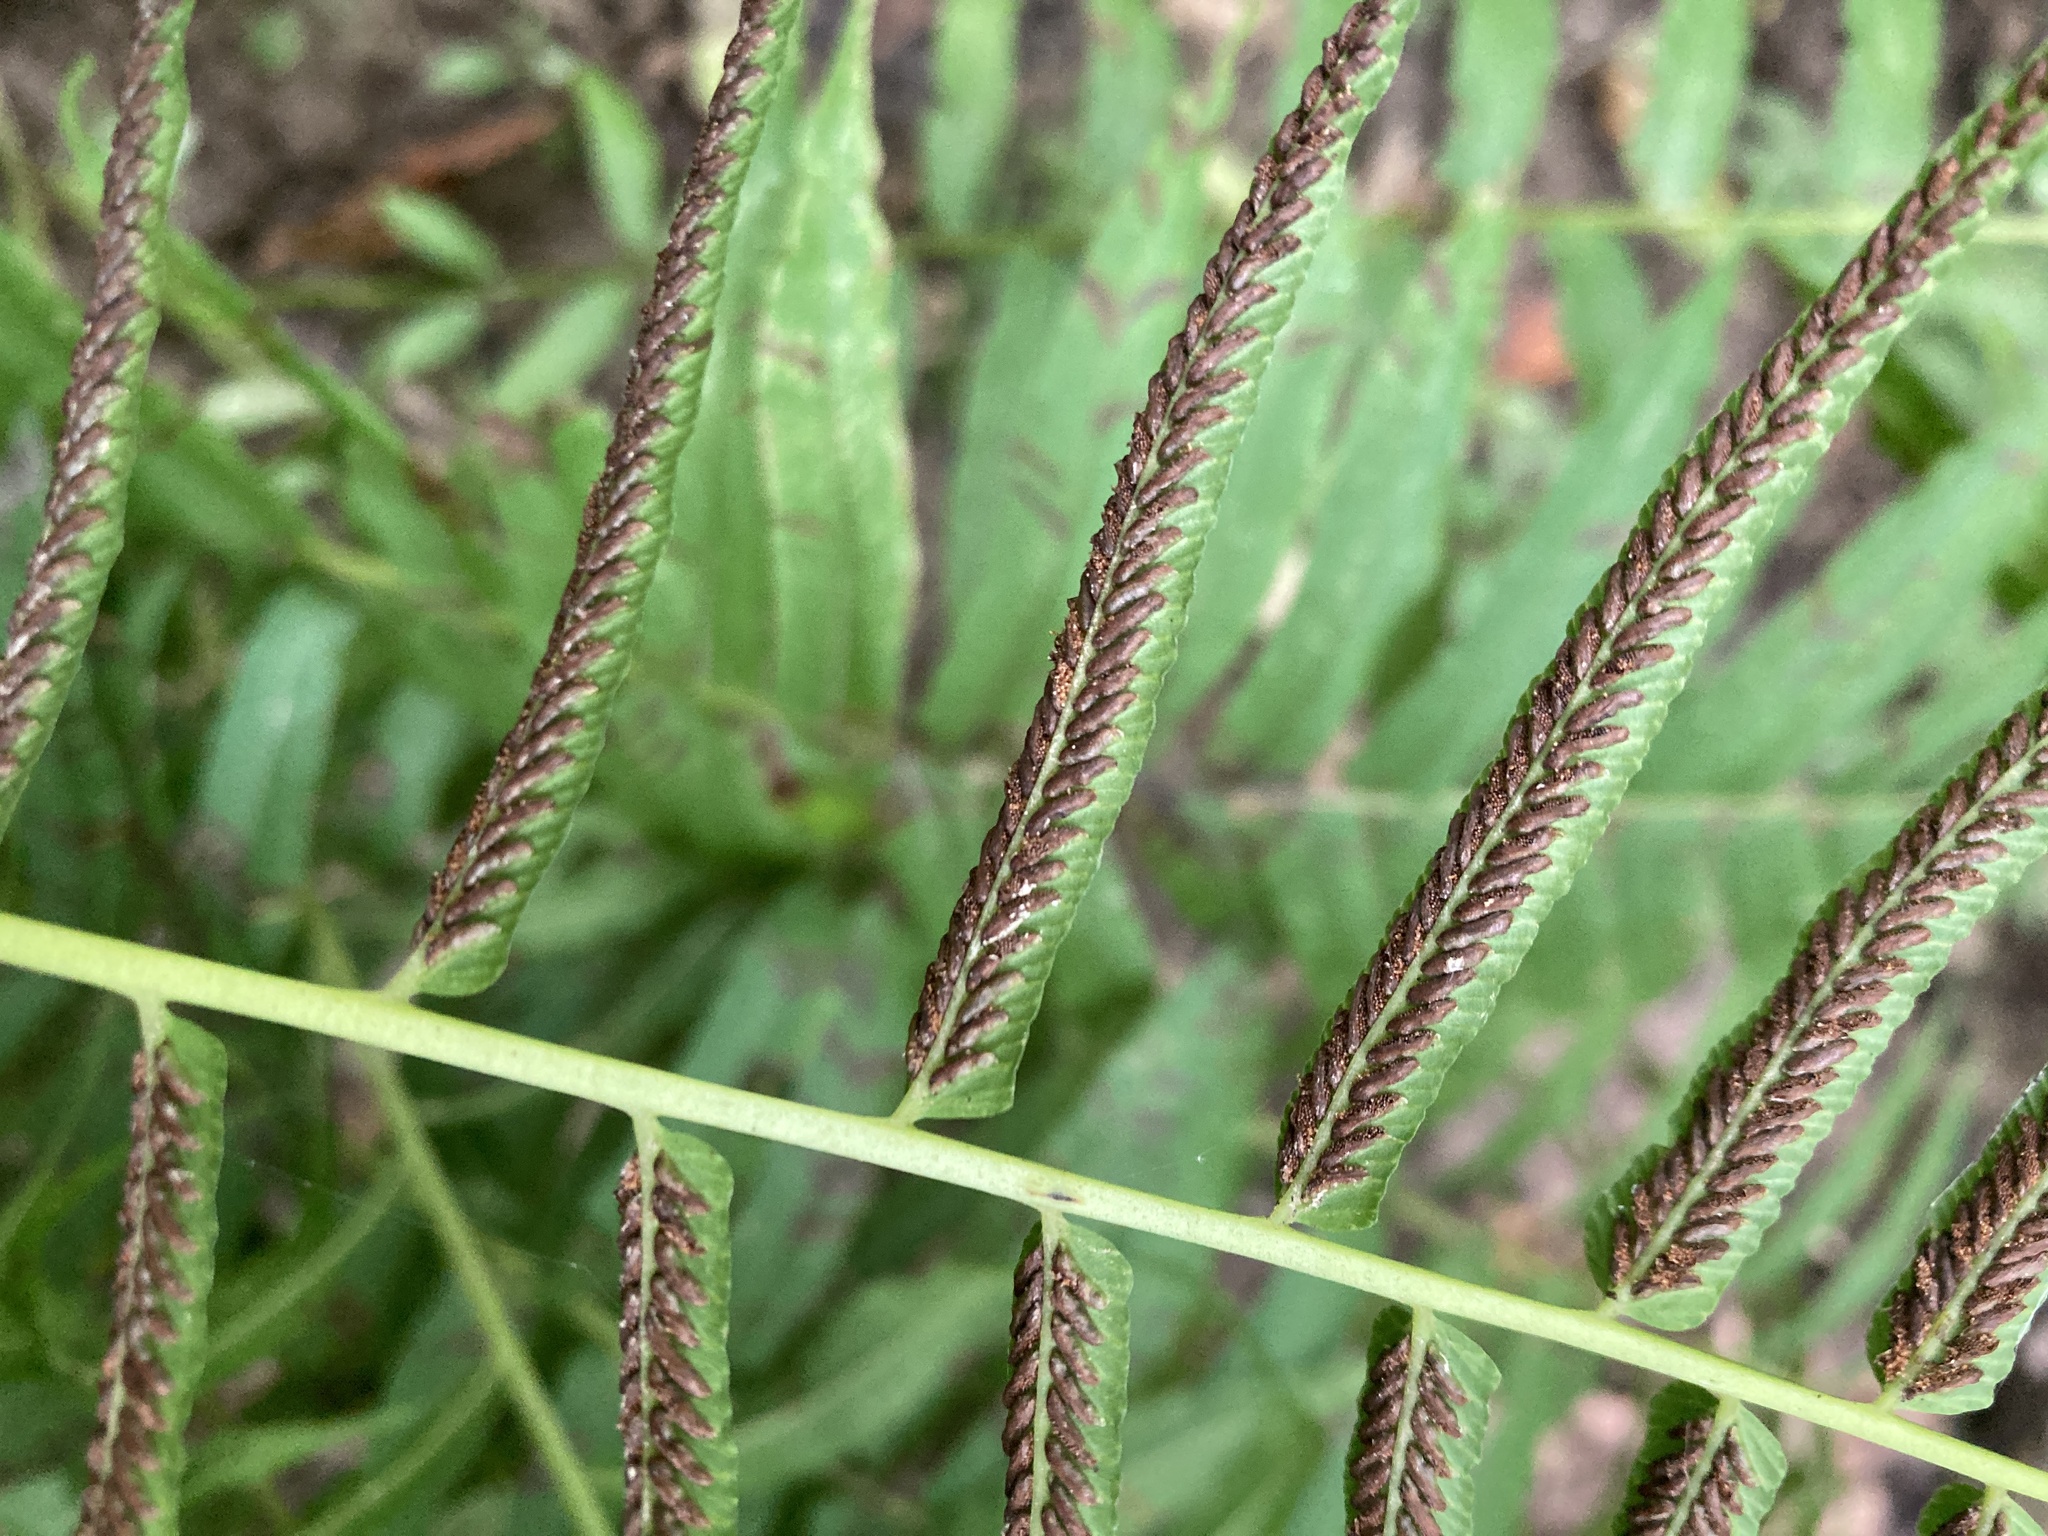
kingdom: Plantae
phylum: Tracheophyta
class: Polypodiopsida
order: Polypodiales
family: Diplaziopsidaceae
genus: Homalosorus
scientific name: Homalosorus pycnocarpos
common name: Glade fern
